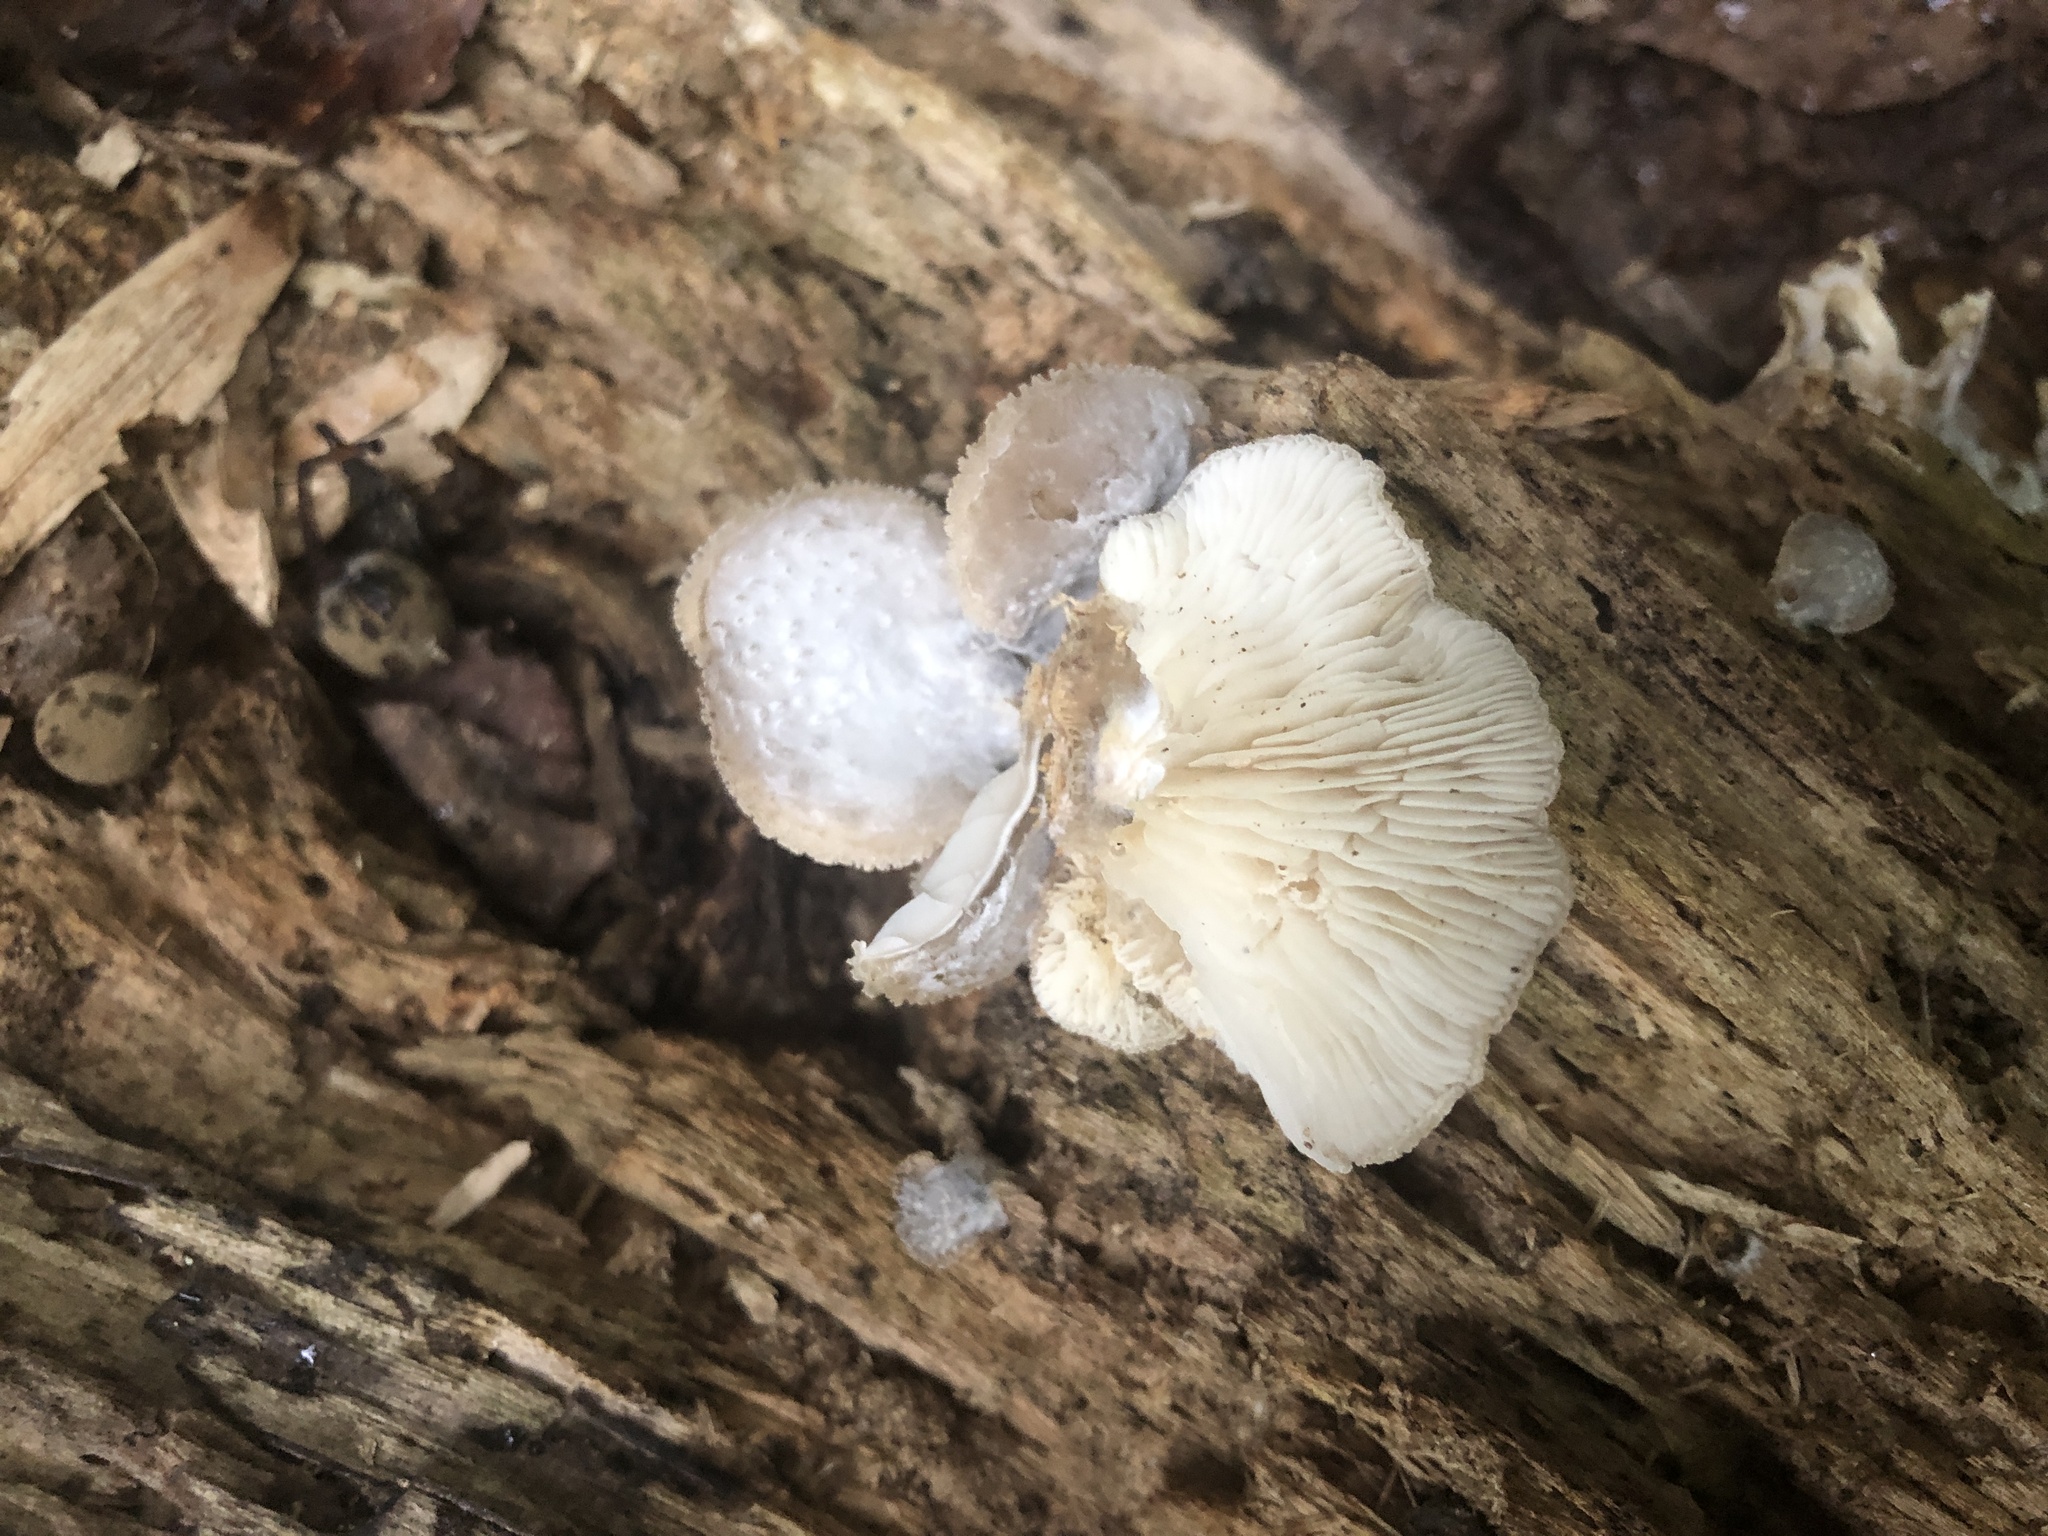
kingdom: Fungi
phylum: Basidiomycota
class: Agaricomycetes
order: Agaricales
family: Pleurotaceae
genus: Hohenbuehelia
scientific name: Hohenbuehelia mastrucata
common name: Woolly oyster
